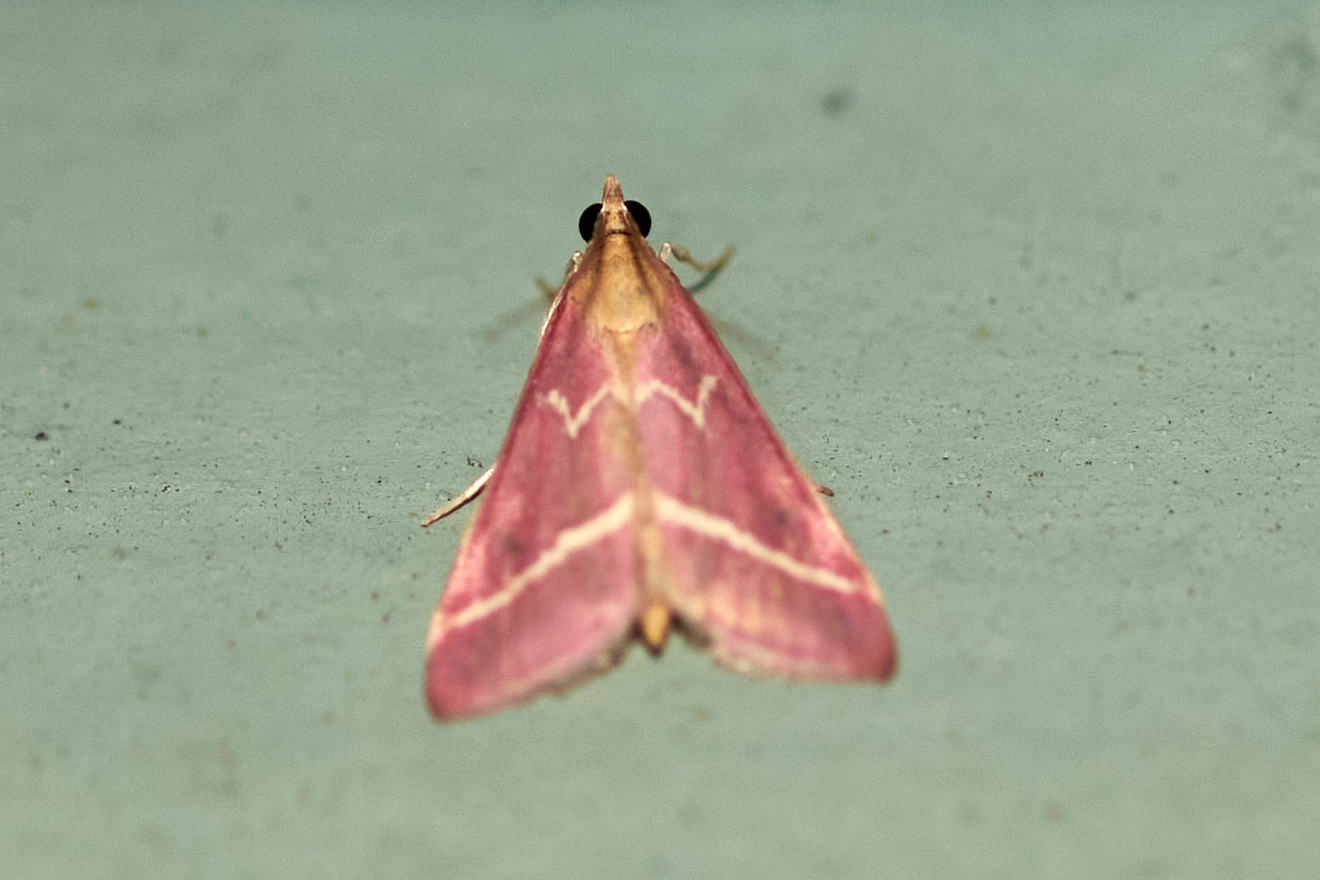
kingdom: Animalia
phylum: Arthropoda
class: Insecta
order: Lepidoptera
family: Crambidae
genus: Pyrausta
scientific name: Pyrausta volupialis
